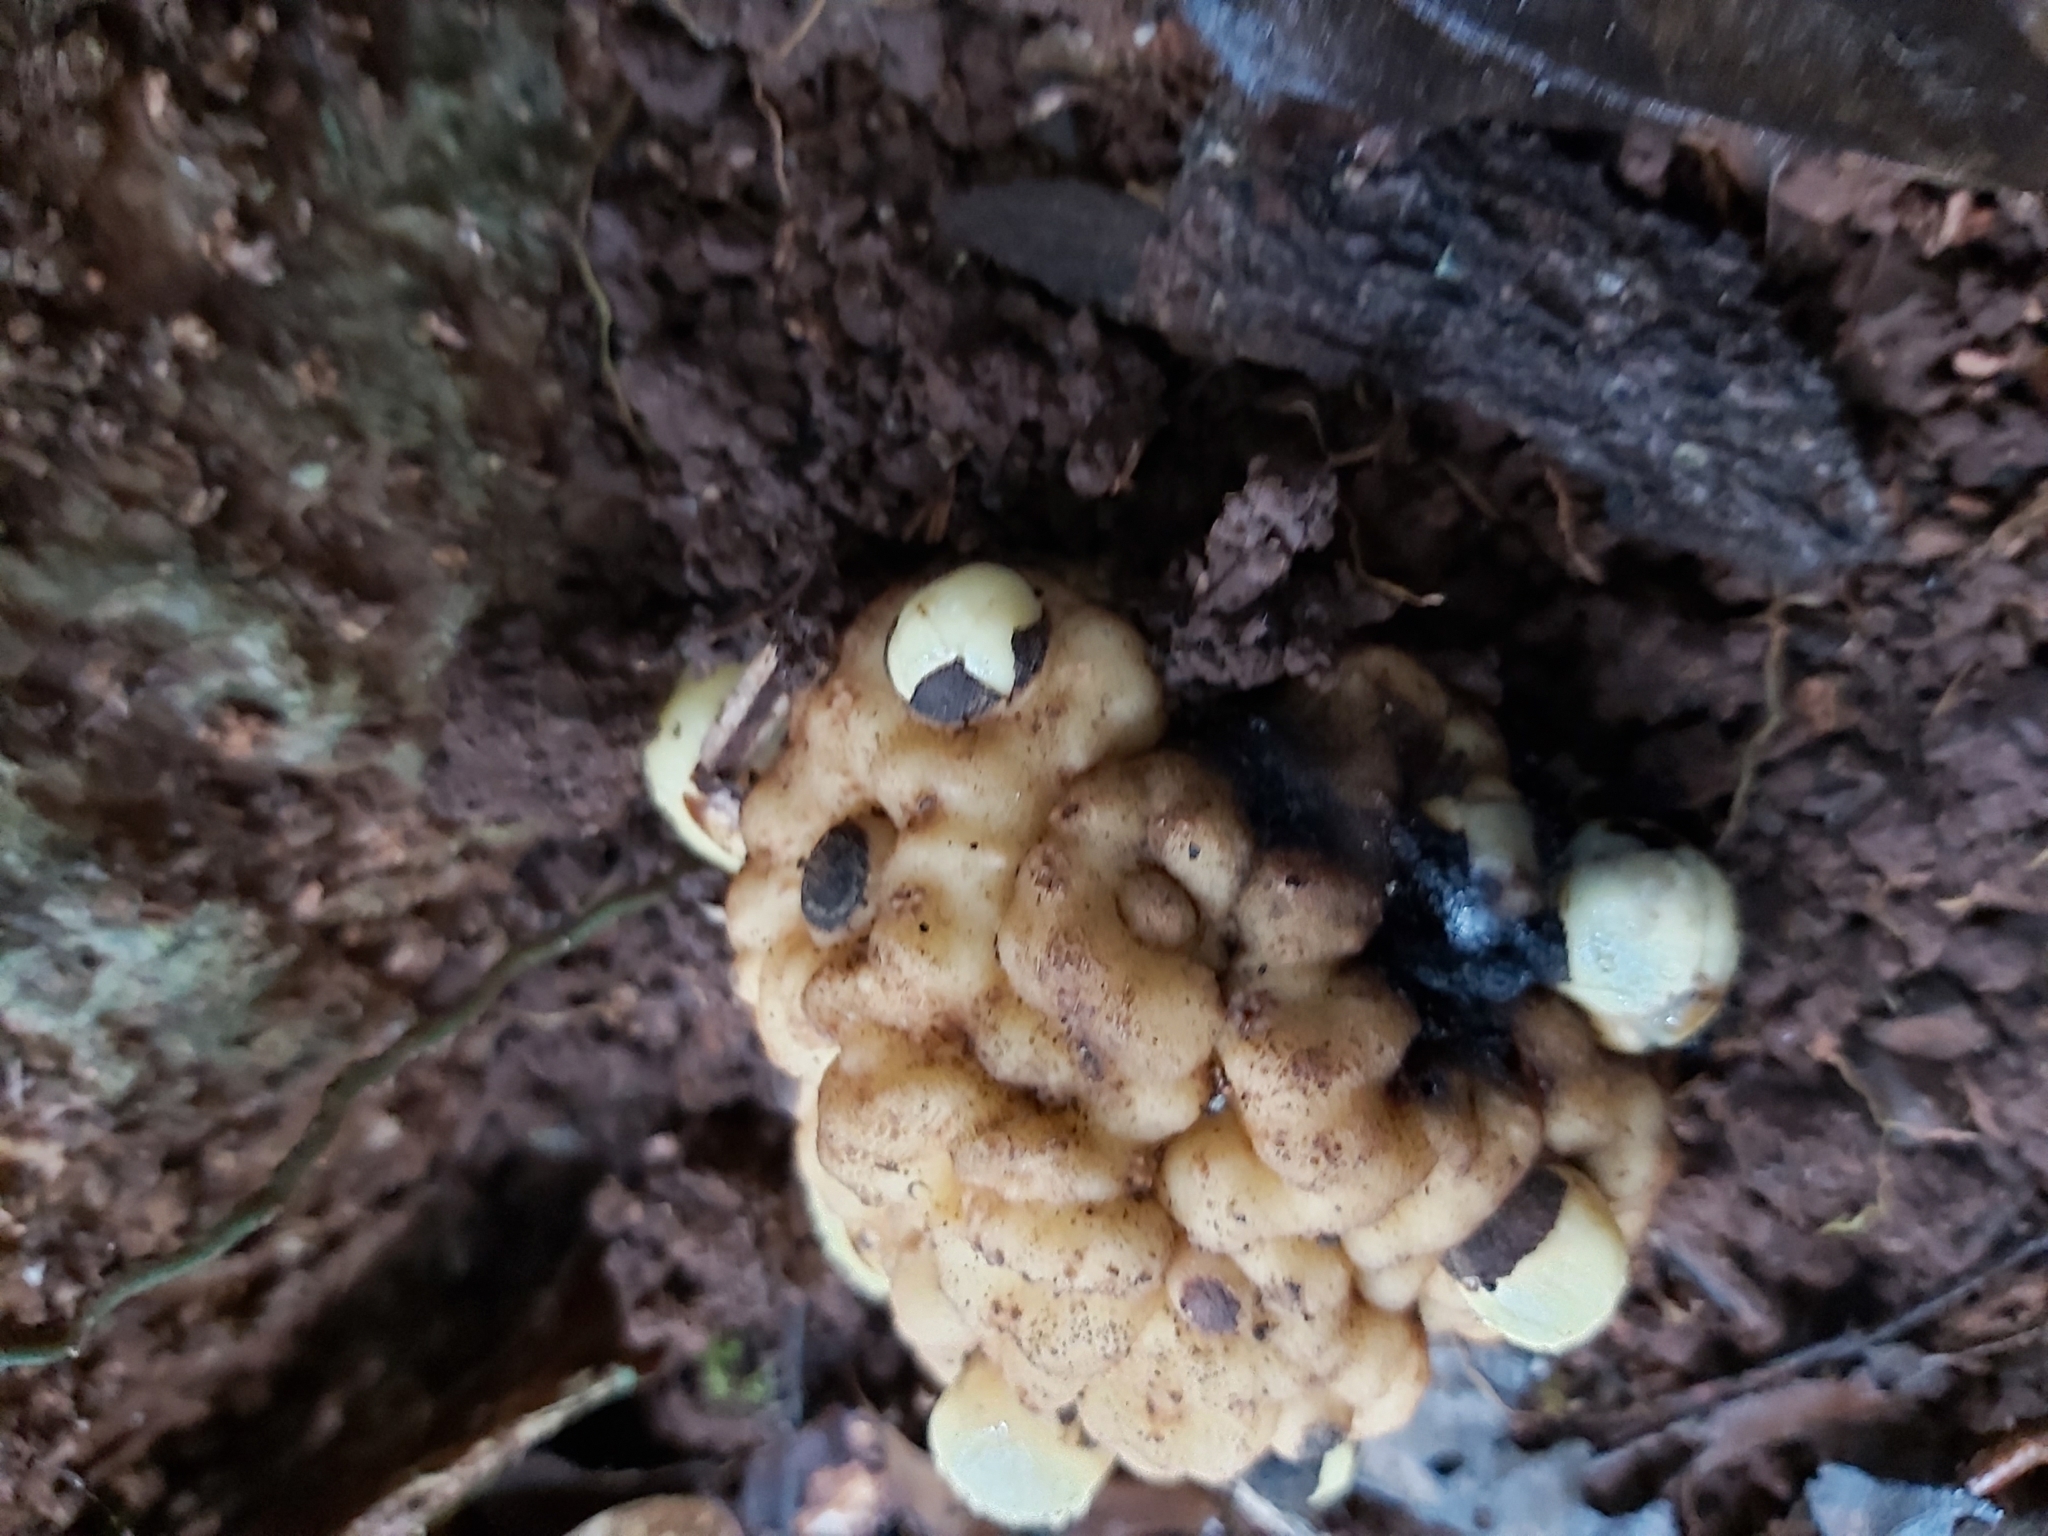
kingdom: Plantae
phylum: Tracheophyta
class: Magnoliopsida
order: Santalales
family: Balanophoraceae
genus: Balanophora
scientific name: Balanophora fungosa
